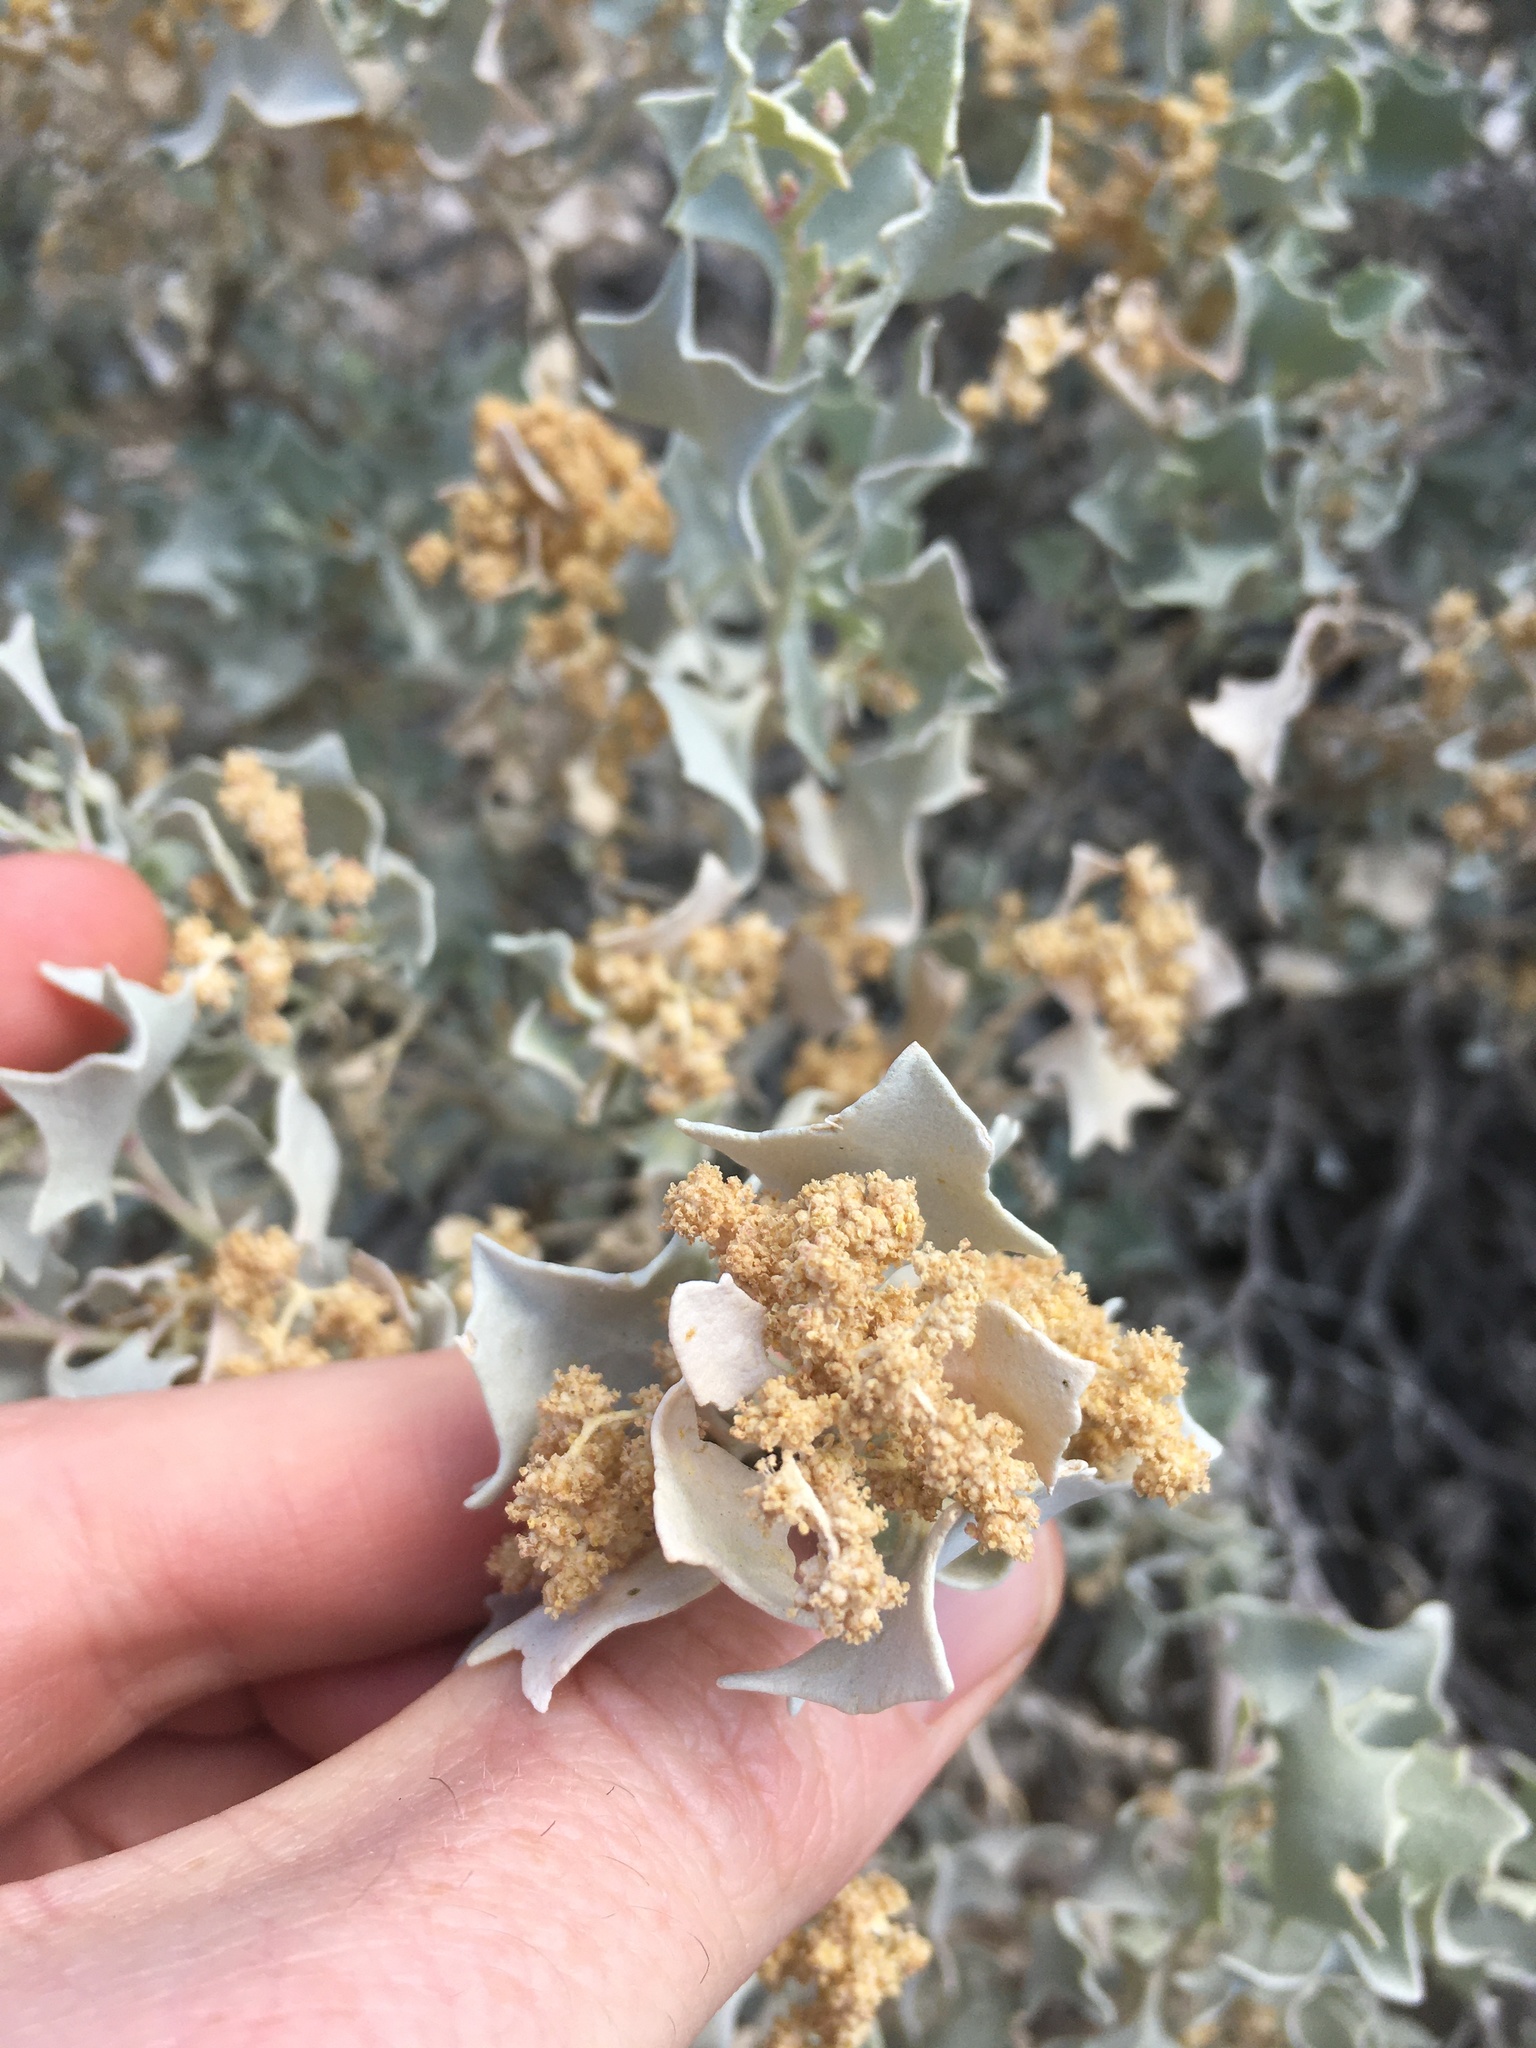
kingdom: Plantae
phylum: Tracheophyta
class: Magnoliopsida
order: Caryophyllales
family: Amaranthaceae
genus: Atriplex
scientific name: Atriplex hymenelytra
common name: Desert-holly
